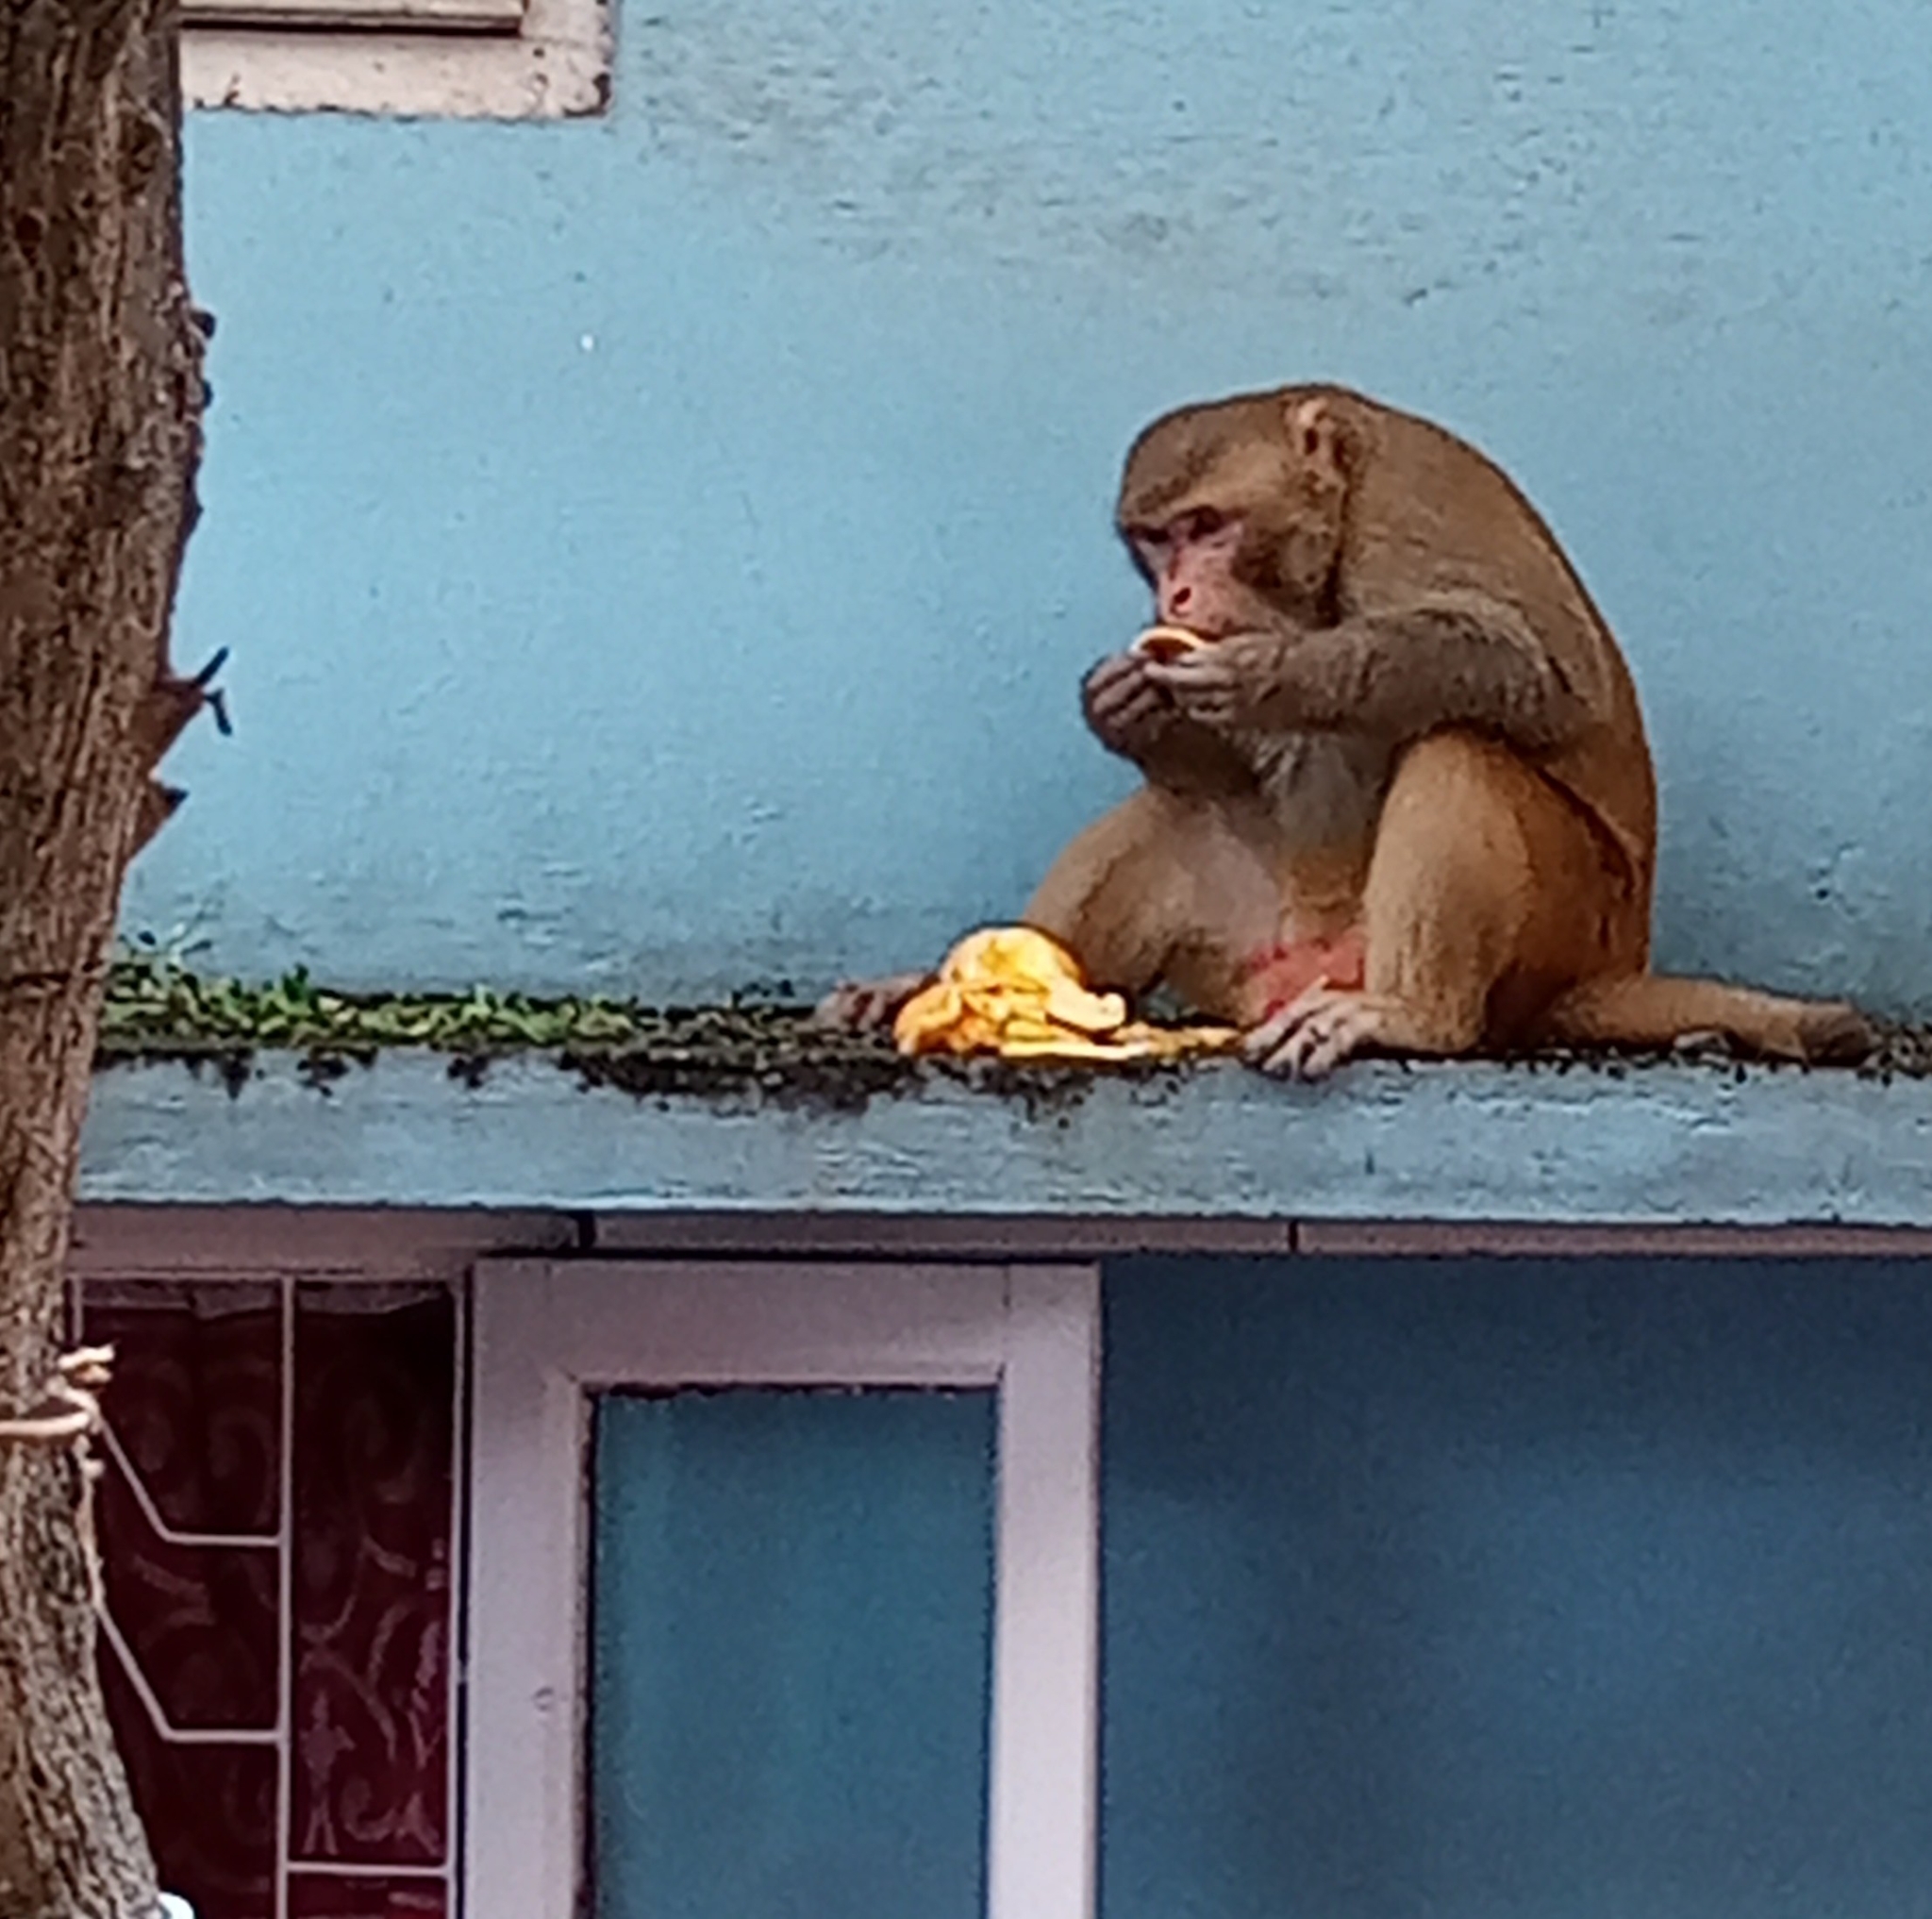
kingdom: Animalia
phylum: Chordata
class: Mammalia
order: Primates
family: Cercopithecidae
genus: Macaca
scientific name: Macaca mulatta
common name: Rhesus monkey
